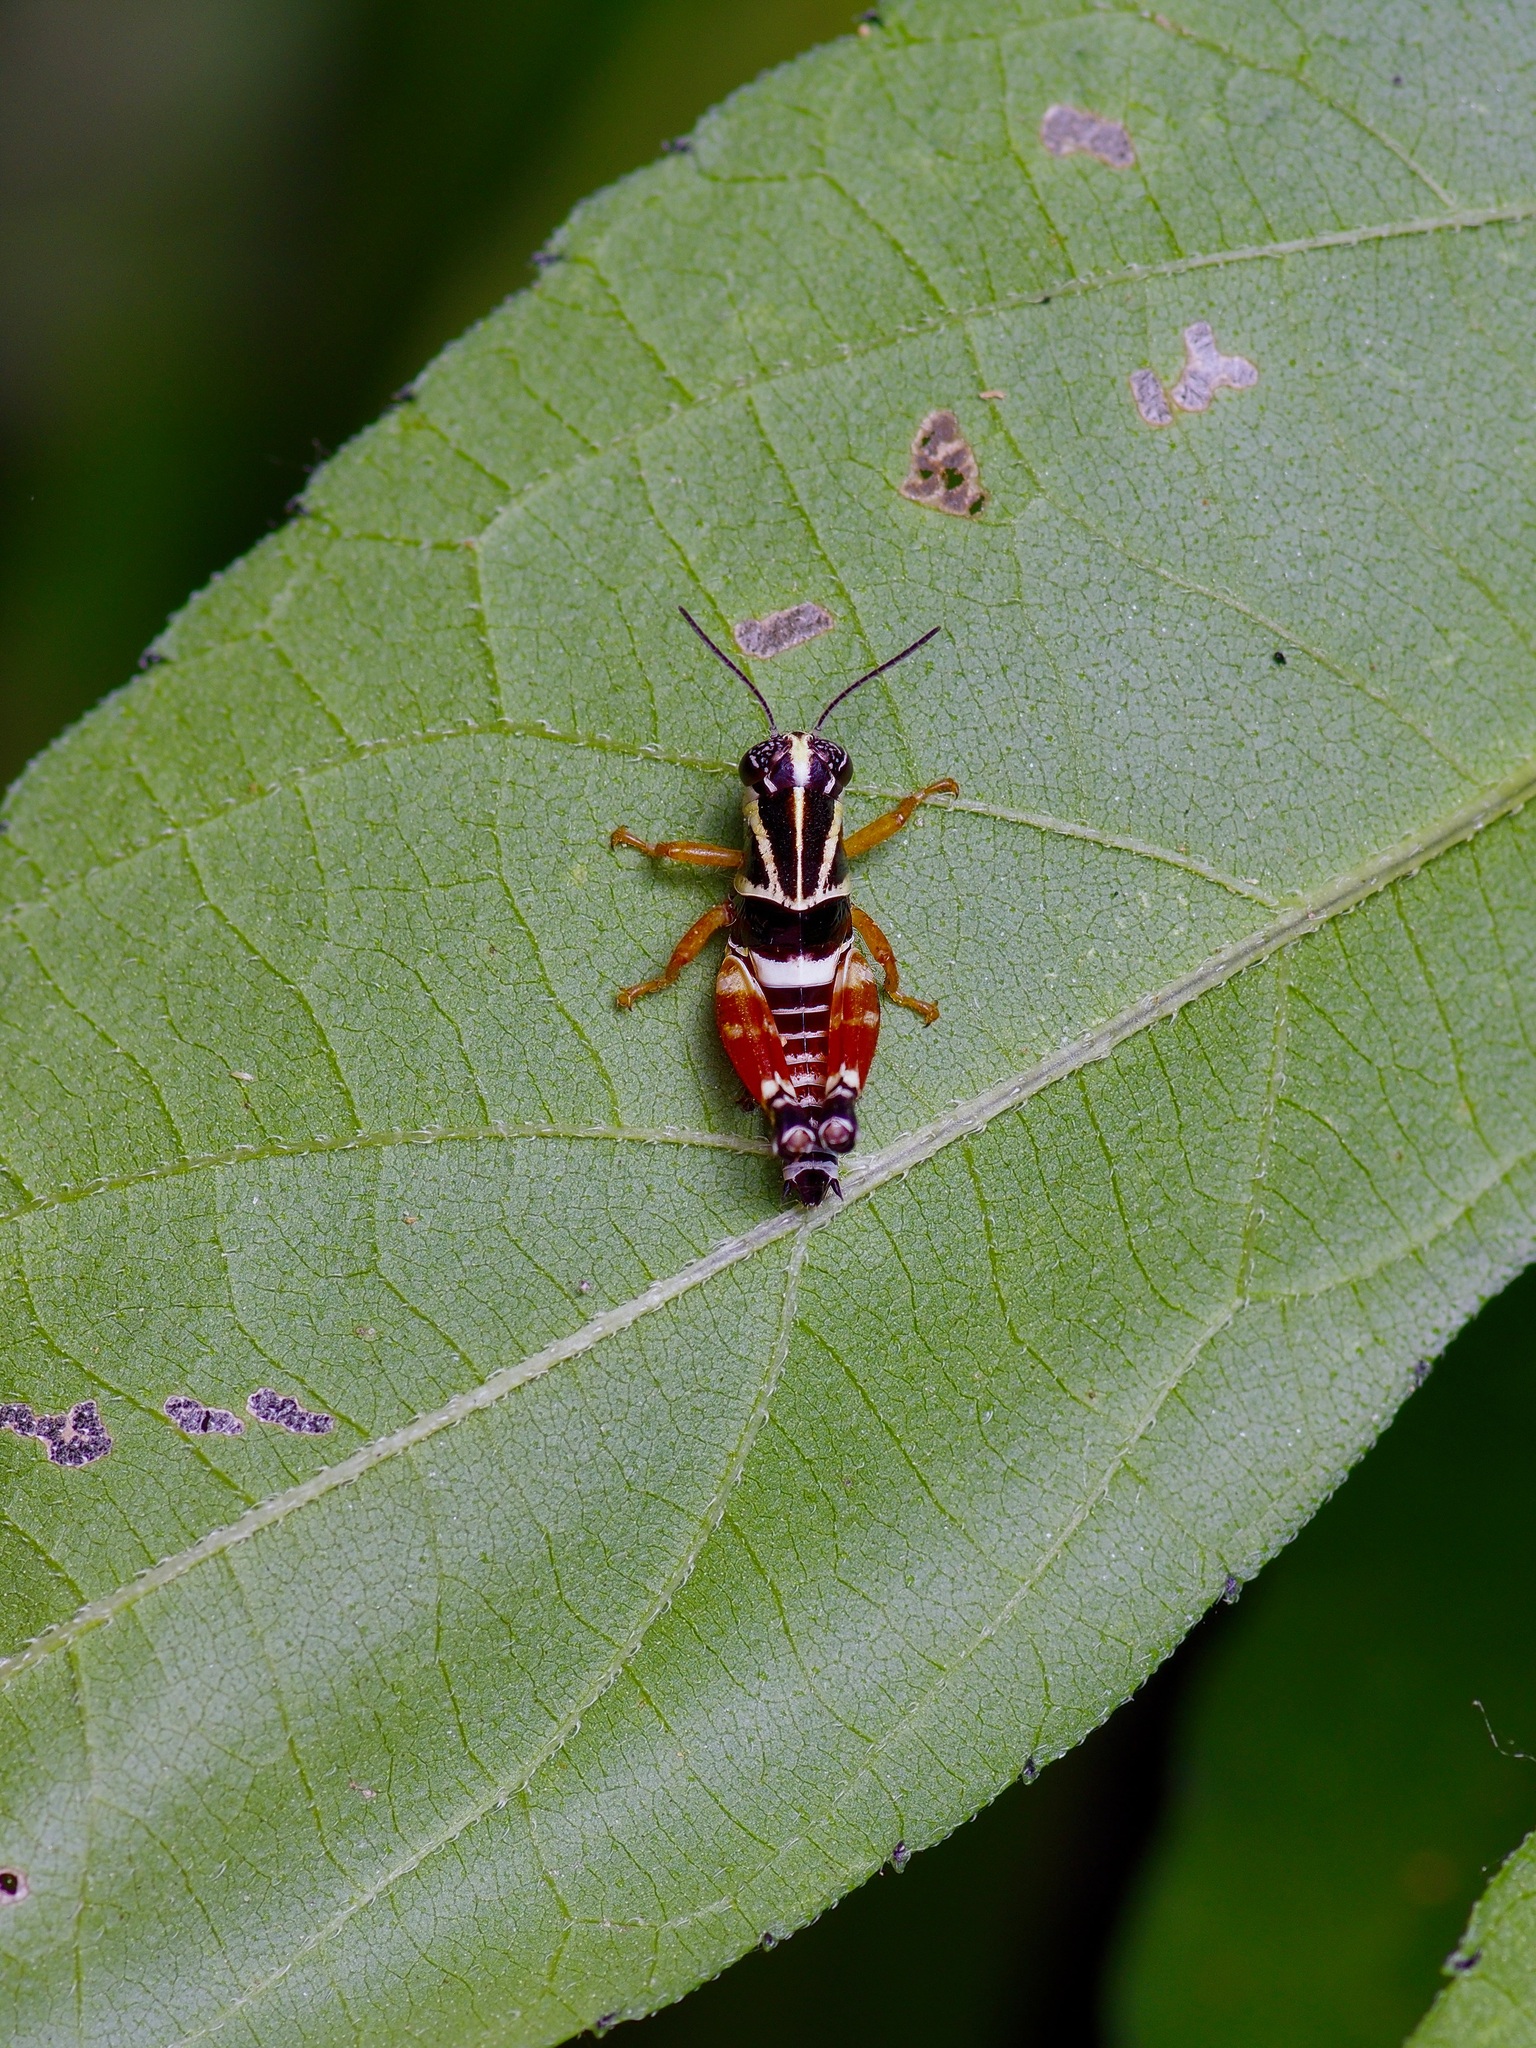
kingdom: Animalia
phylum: Arthropoda
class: Insecta
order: Orthoptera
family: Acrididae
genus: Aidemona
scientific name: Aidemona azteca
